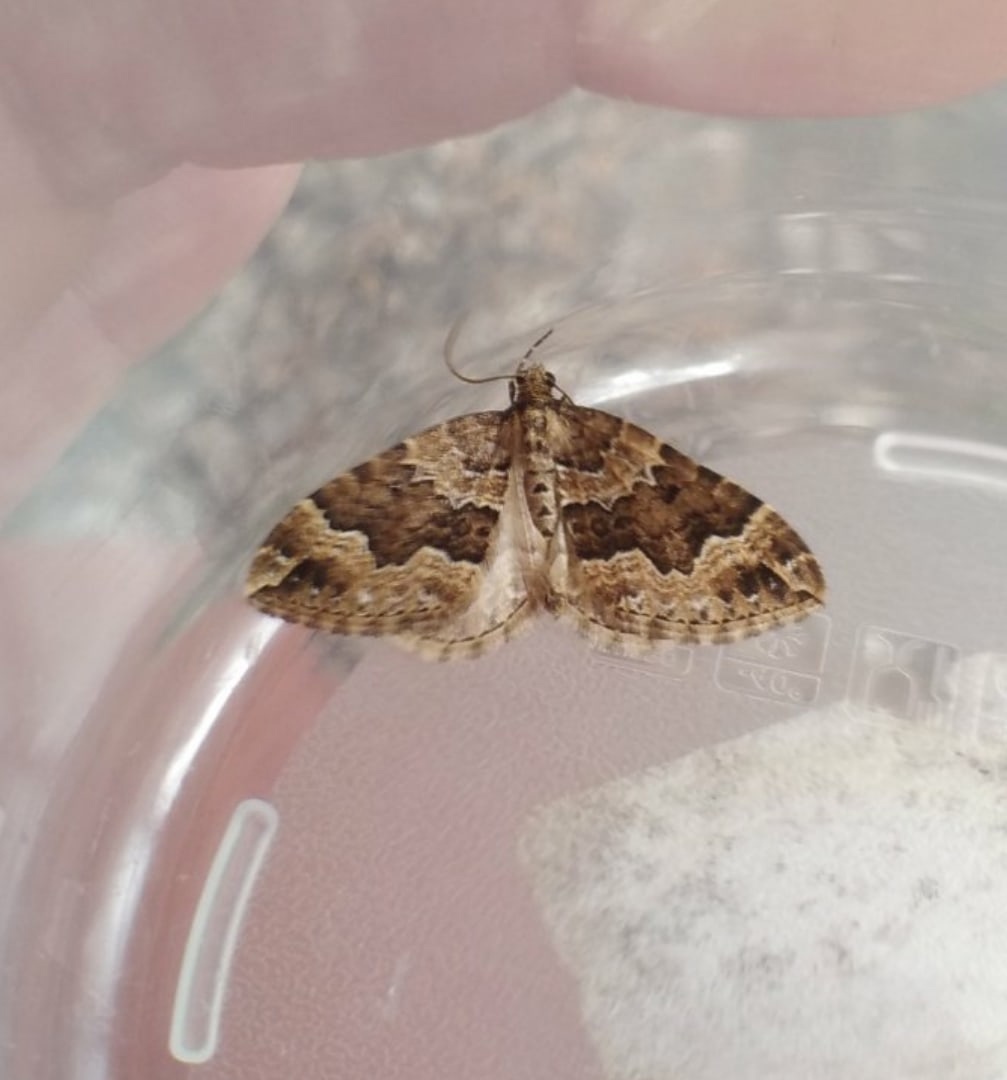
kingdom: Animalia
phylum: Arthropoda
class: Insecta
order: Lepidoptera
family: Geometridae
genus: Lampropteryx
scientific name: Lampropteryx suffumata
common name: Water carpet
